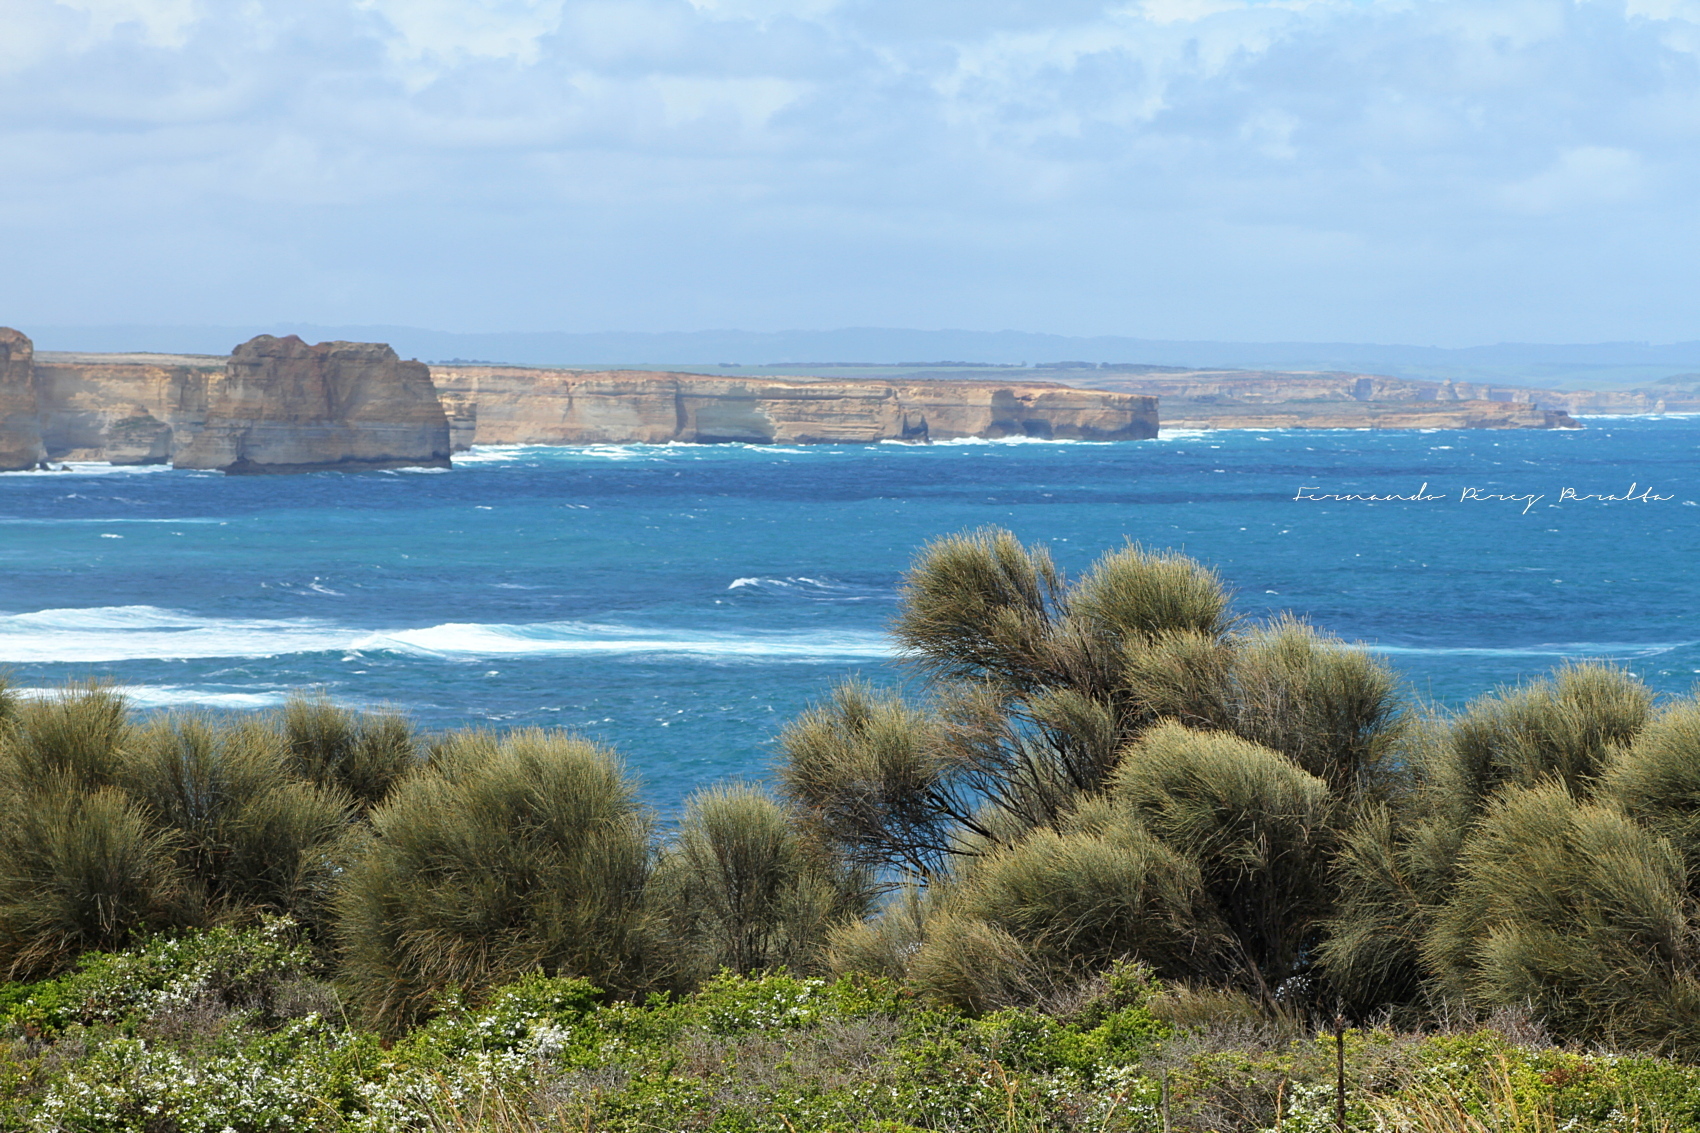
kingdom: Plantae
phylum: Tracheophyta
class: Magnoliopsida
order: Fagales
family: Casuarinaceae
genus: Allocasuarina
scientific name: Allocasuarina verticillata
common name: Drooping she-oak
